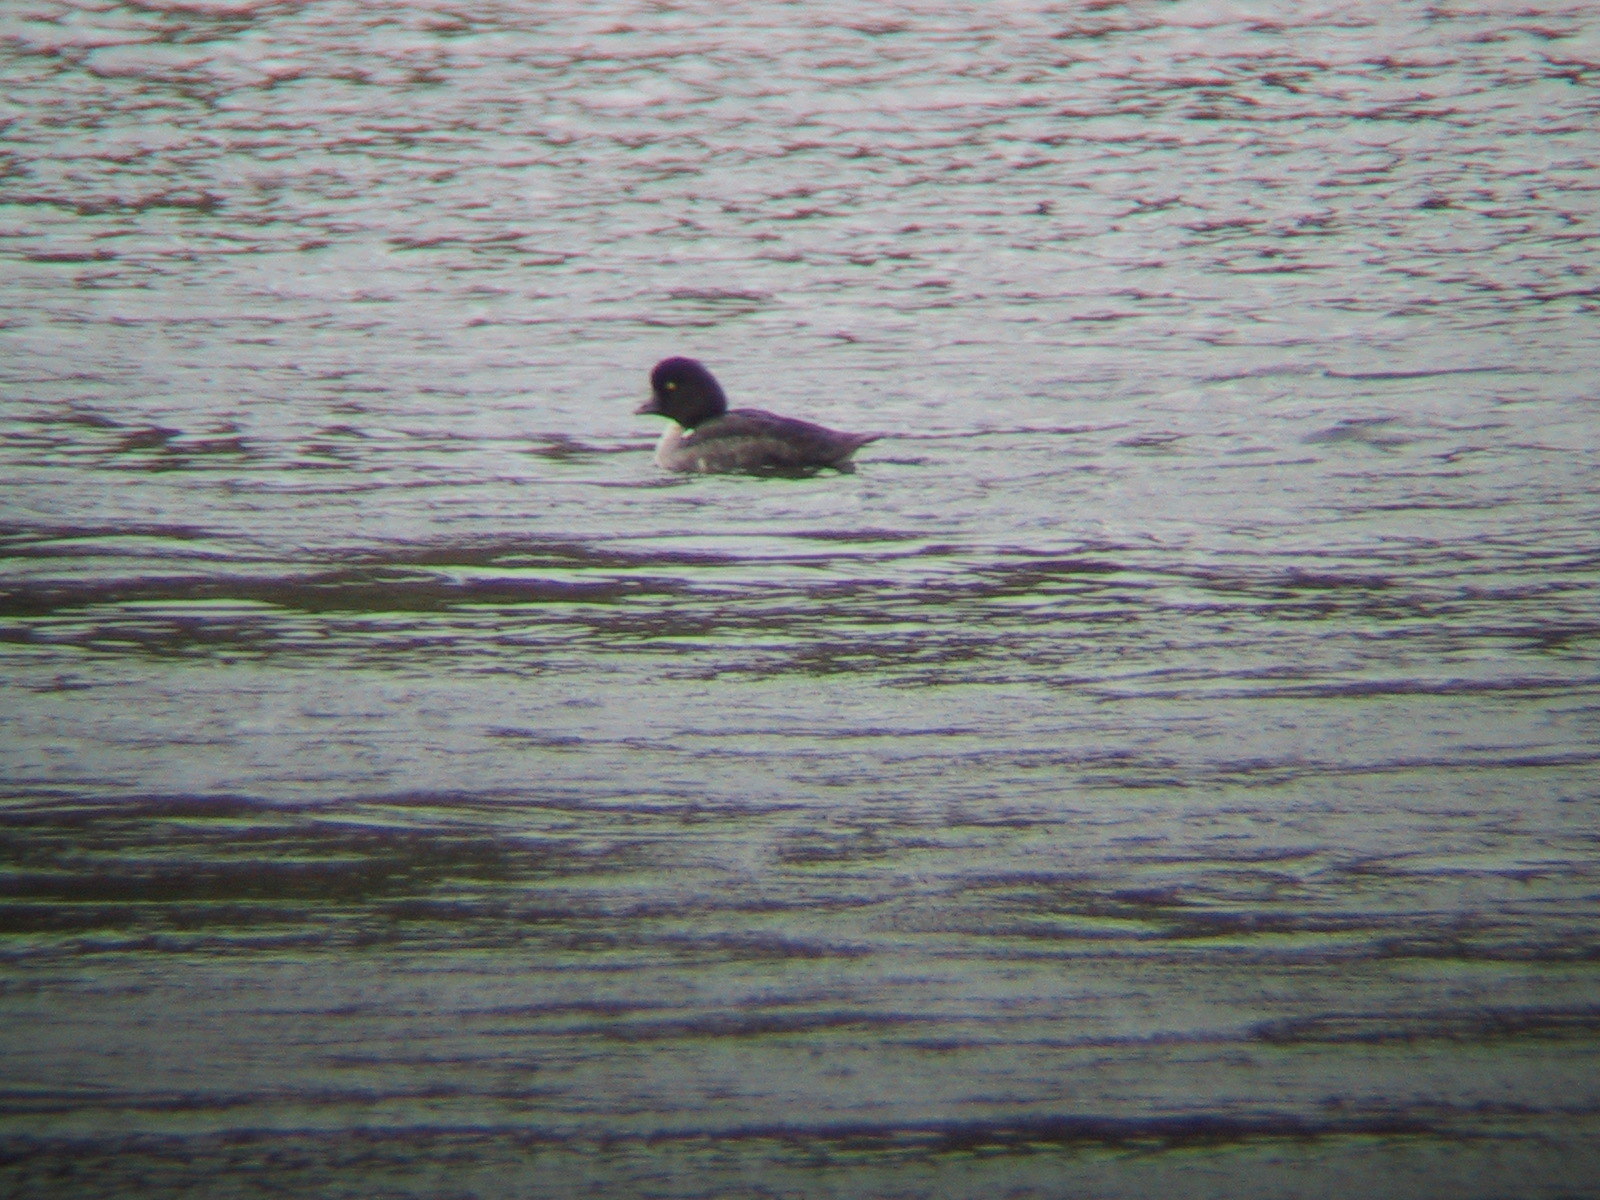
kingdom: Animalia
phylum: Chordata
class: Aves
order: Anseriformes
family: Anatidae
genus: Bucephala
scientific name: Bucephala islandica
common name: Barrow's goldeneye
